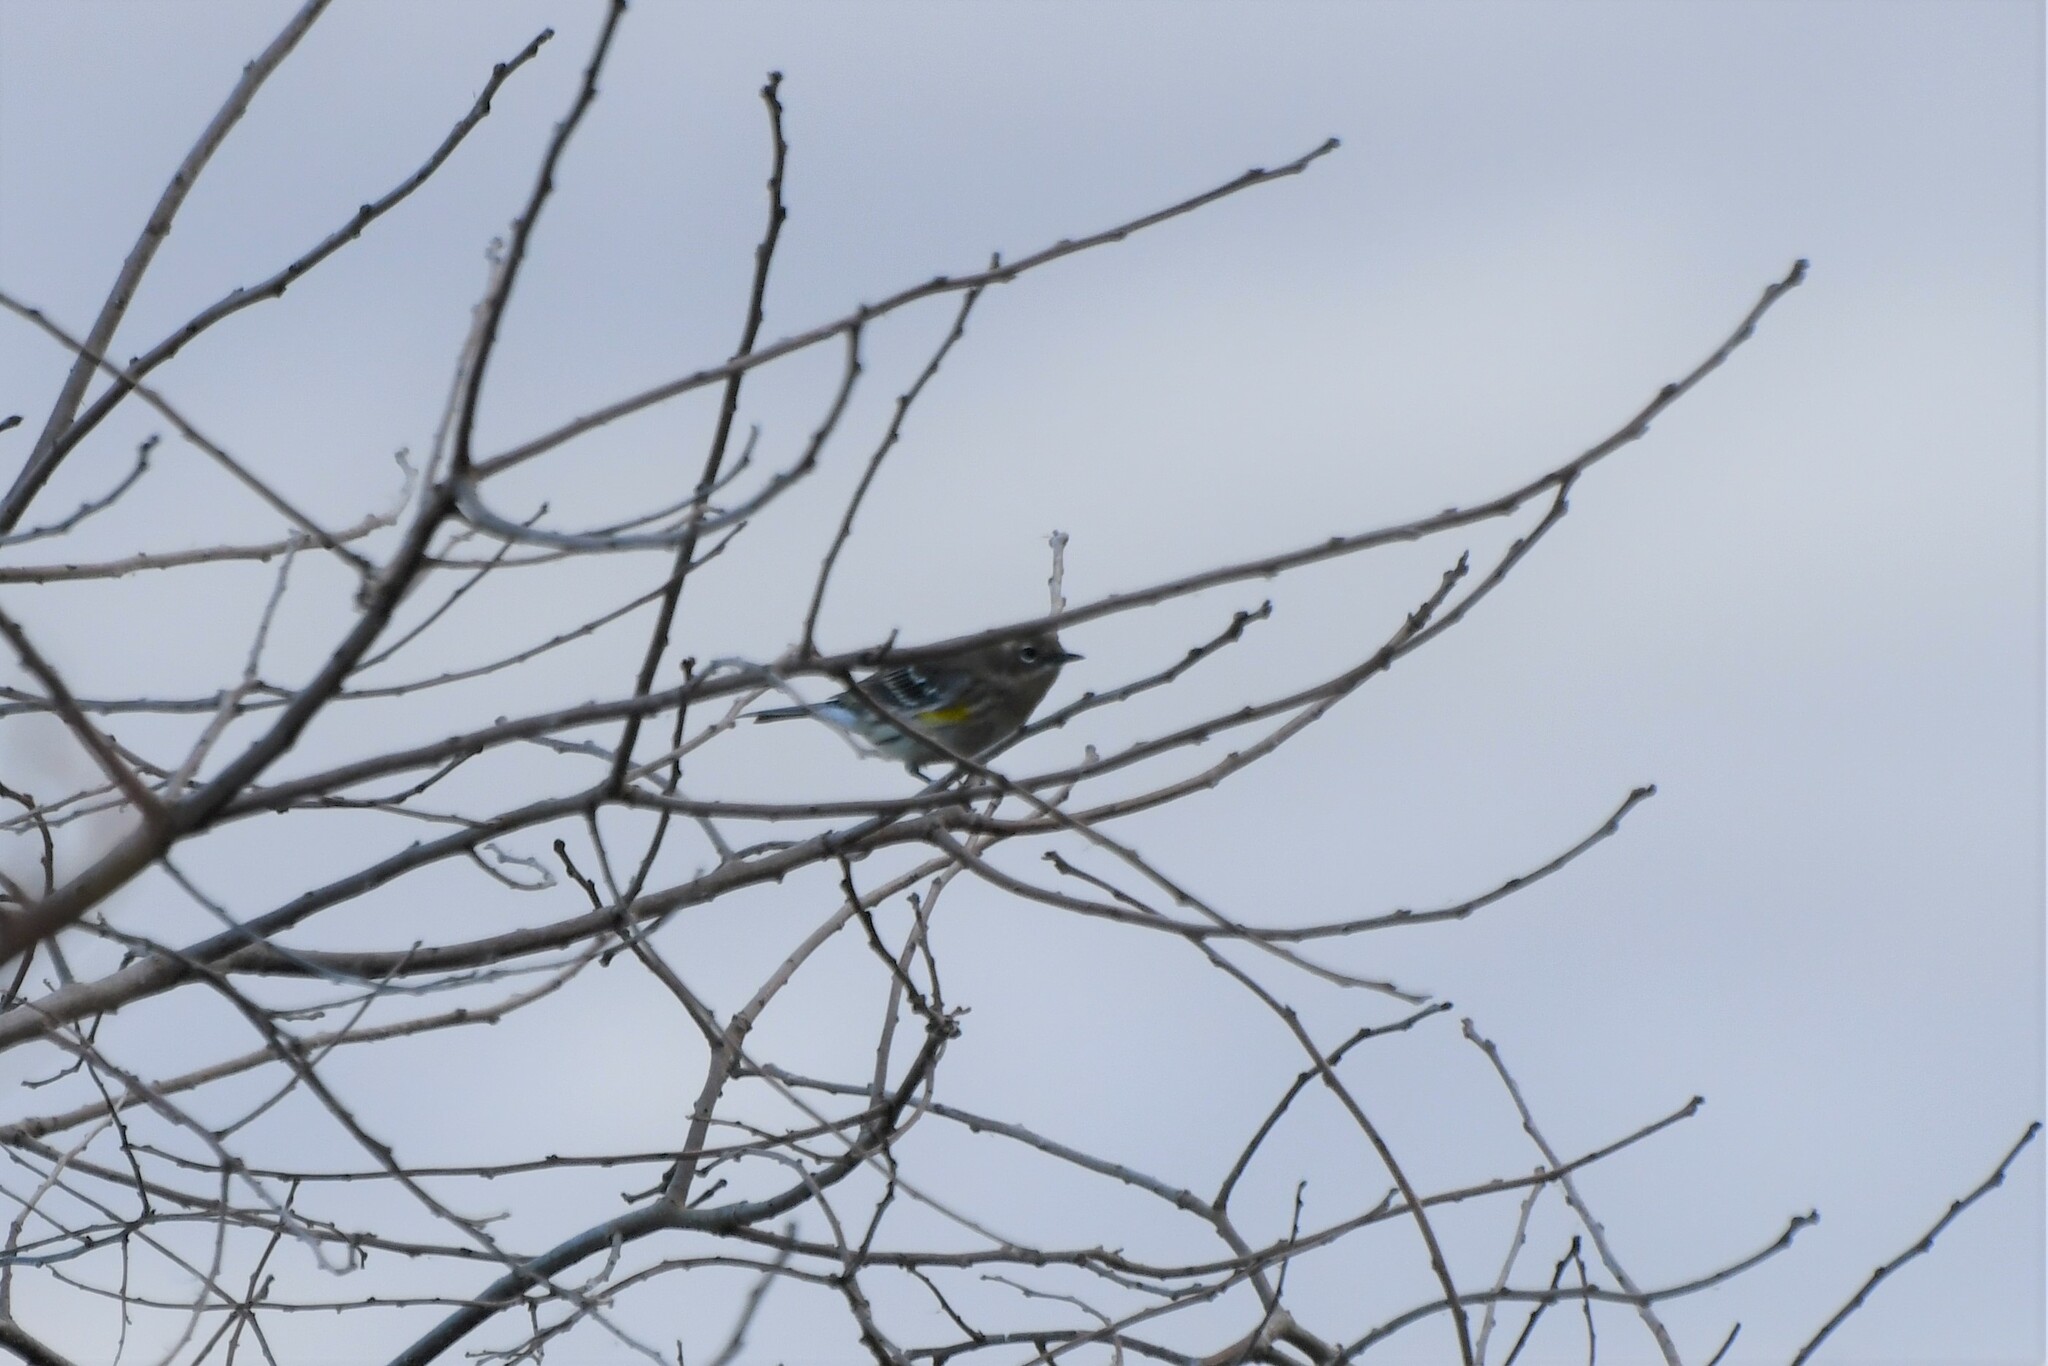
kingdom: Animalia
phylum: Chordata
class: Aves
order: Passeriformes
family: Parulidae
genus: Setophaga
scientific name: Setophaga coronata
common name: Myrtle warbler
